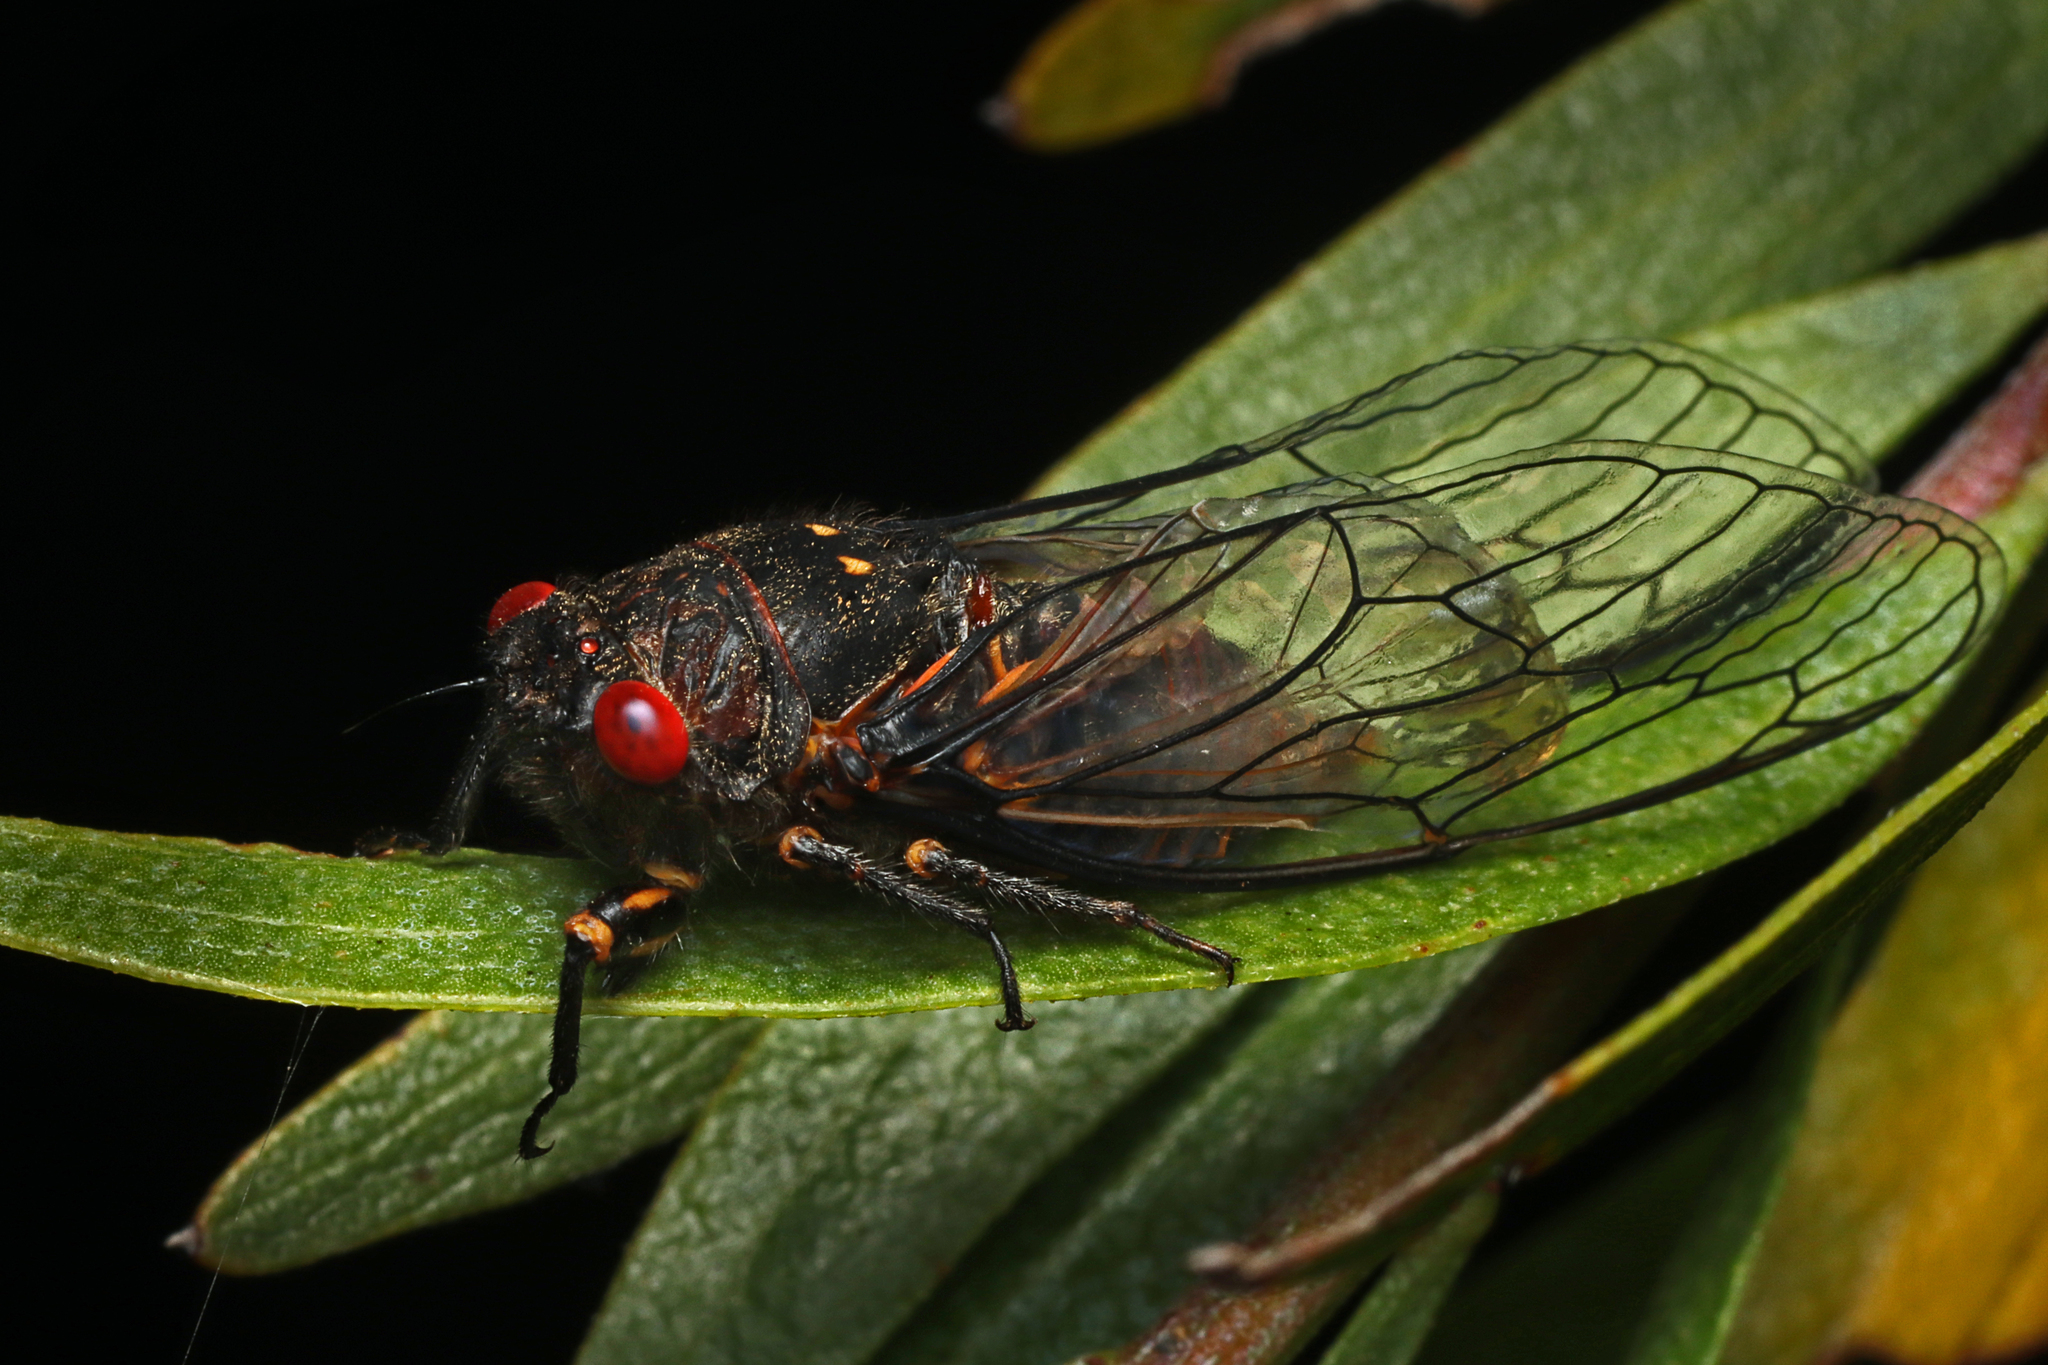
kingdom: Animalia
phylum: Arthropoda
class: Insecta
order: Hemiptera
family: Cicadidae
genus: Clinopsalta
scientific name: Clinopsalta adelaida
